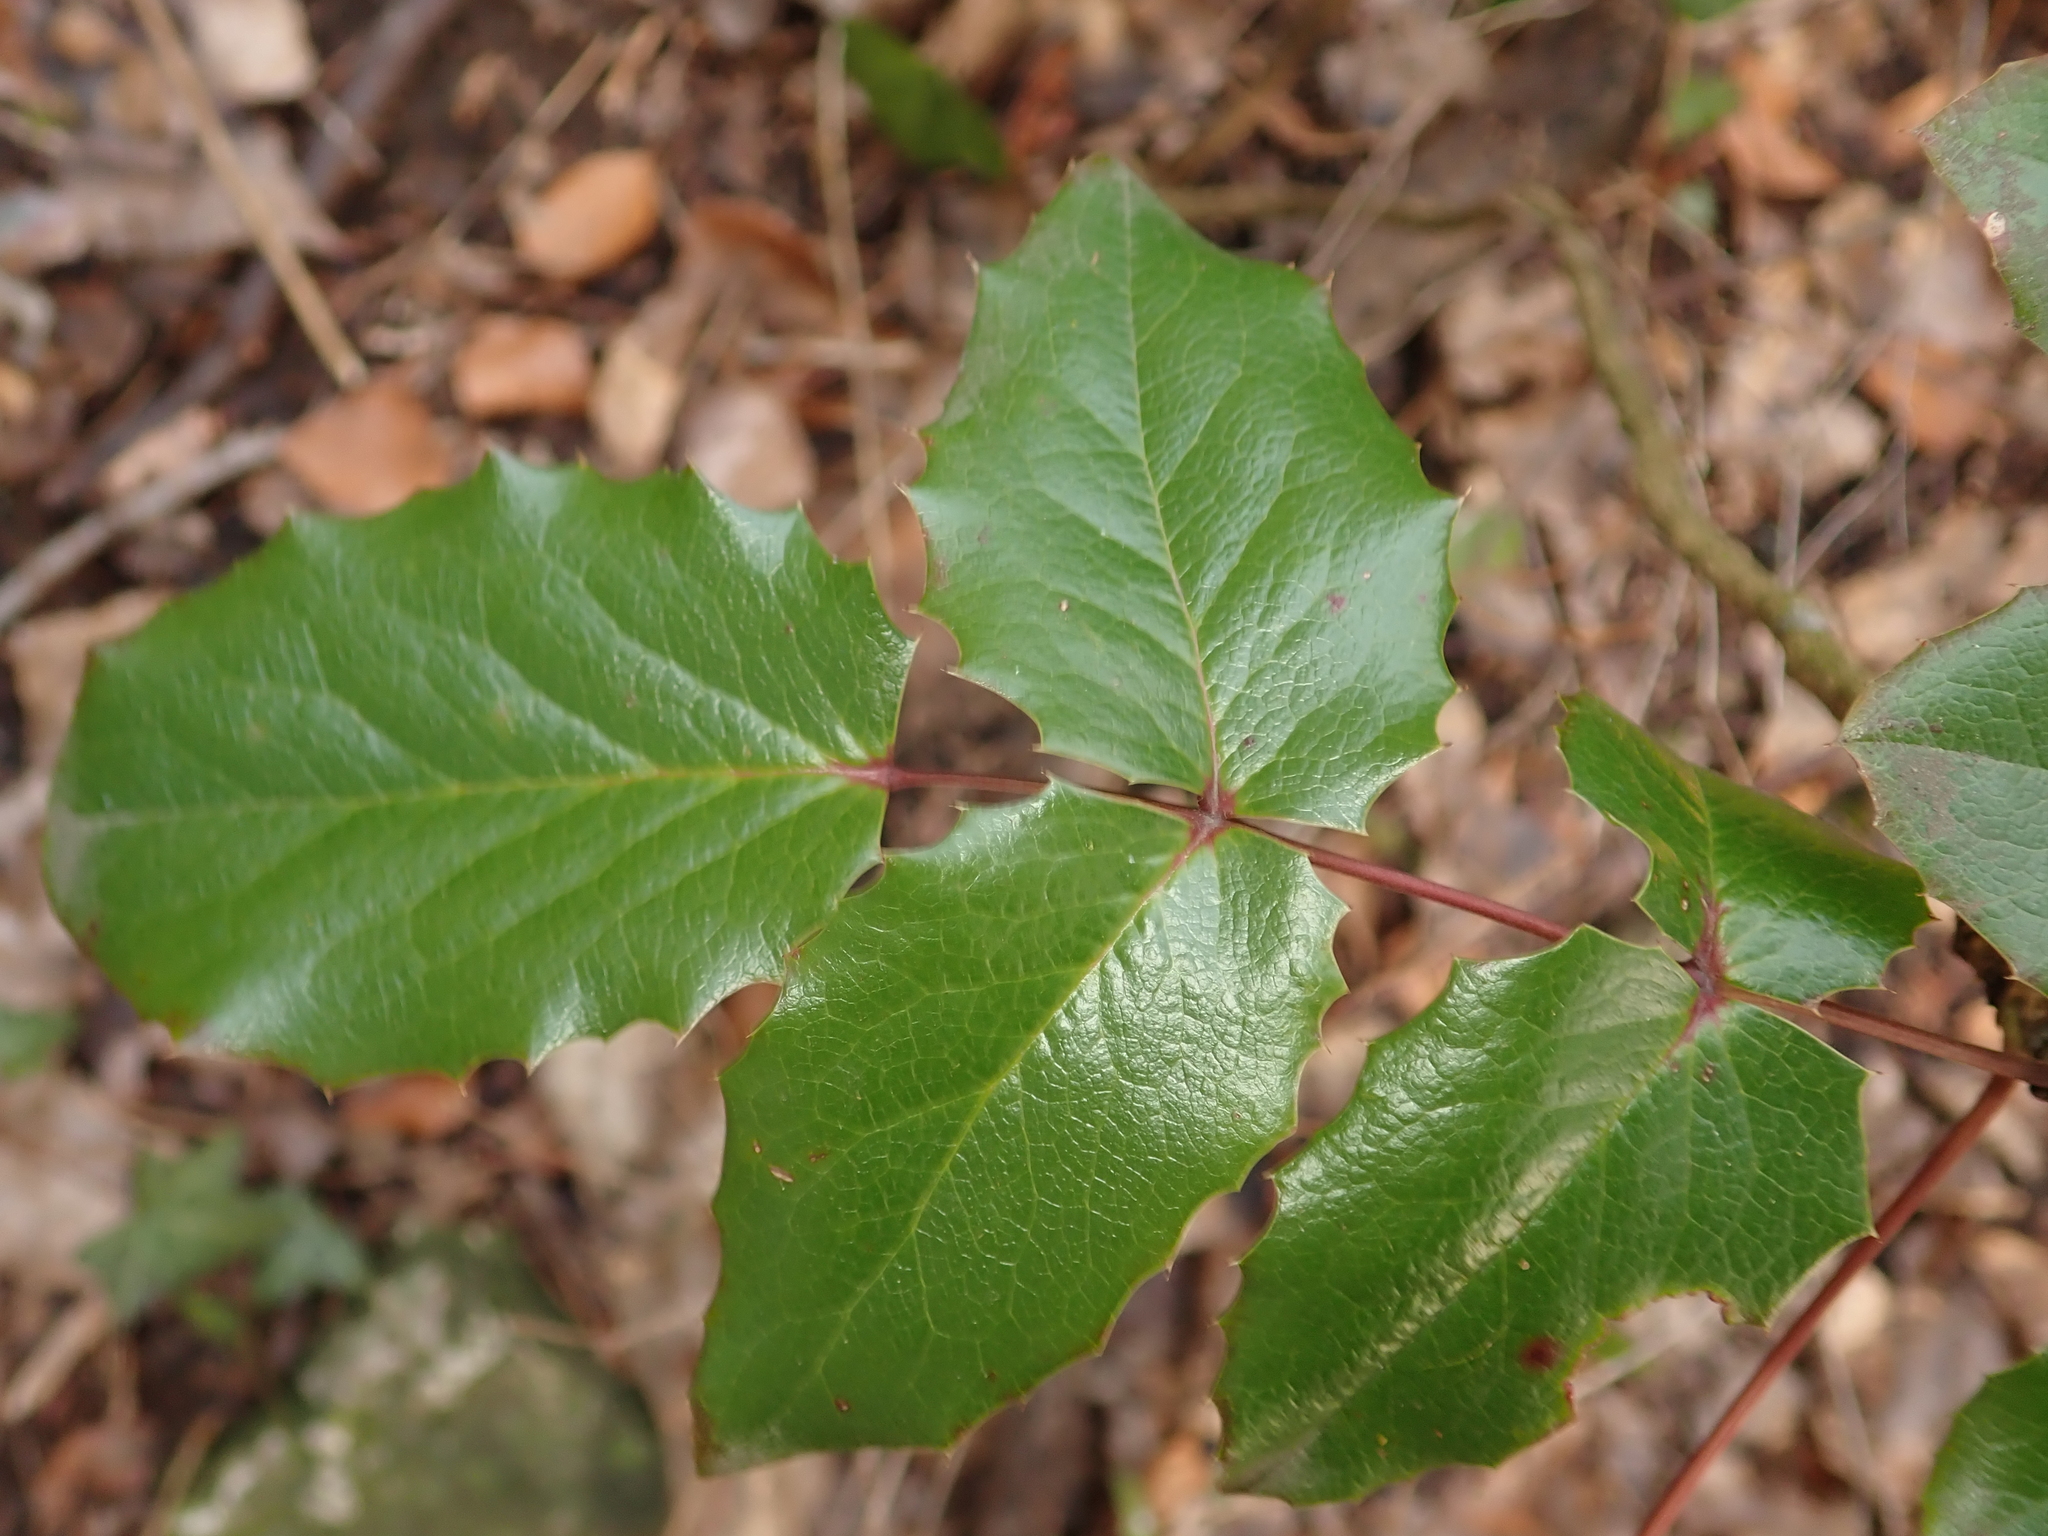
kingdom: Plantae
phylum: Tracheophyta
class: Magnoliopsida
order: Ranunculales
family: Berberidaceae
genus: Mahonia
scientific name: Mahonia aquifolium
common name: Oregon-grape
